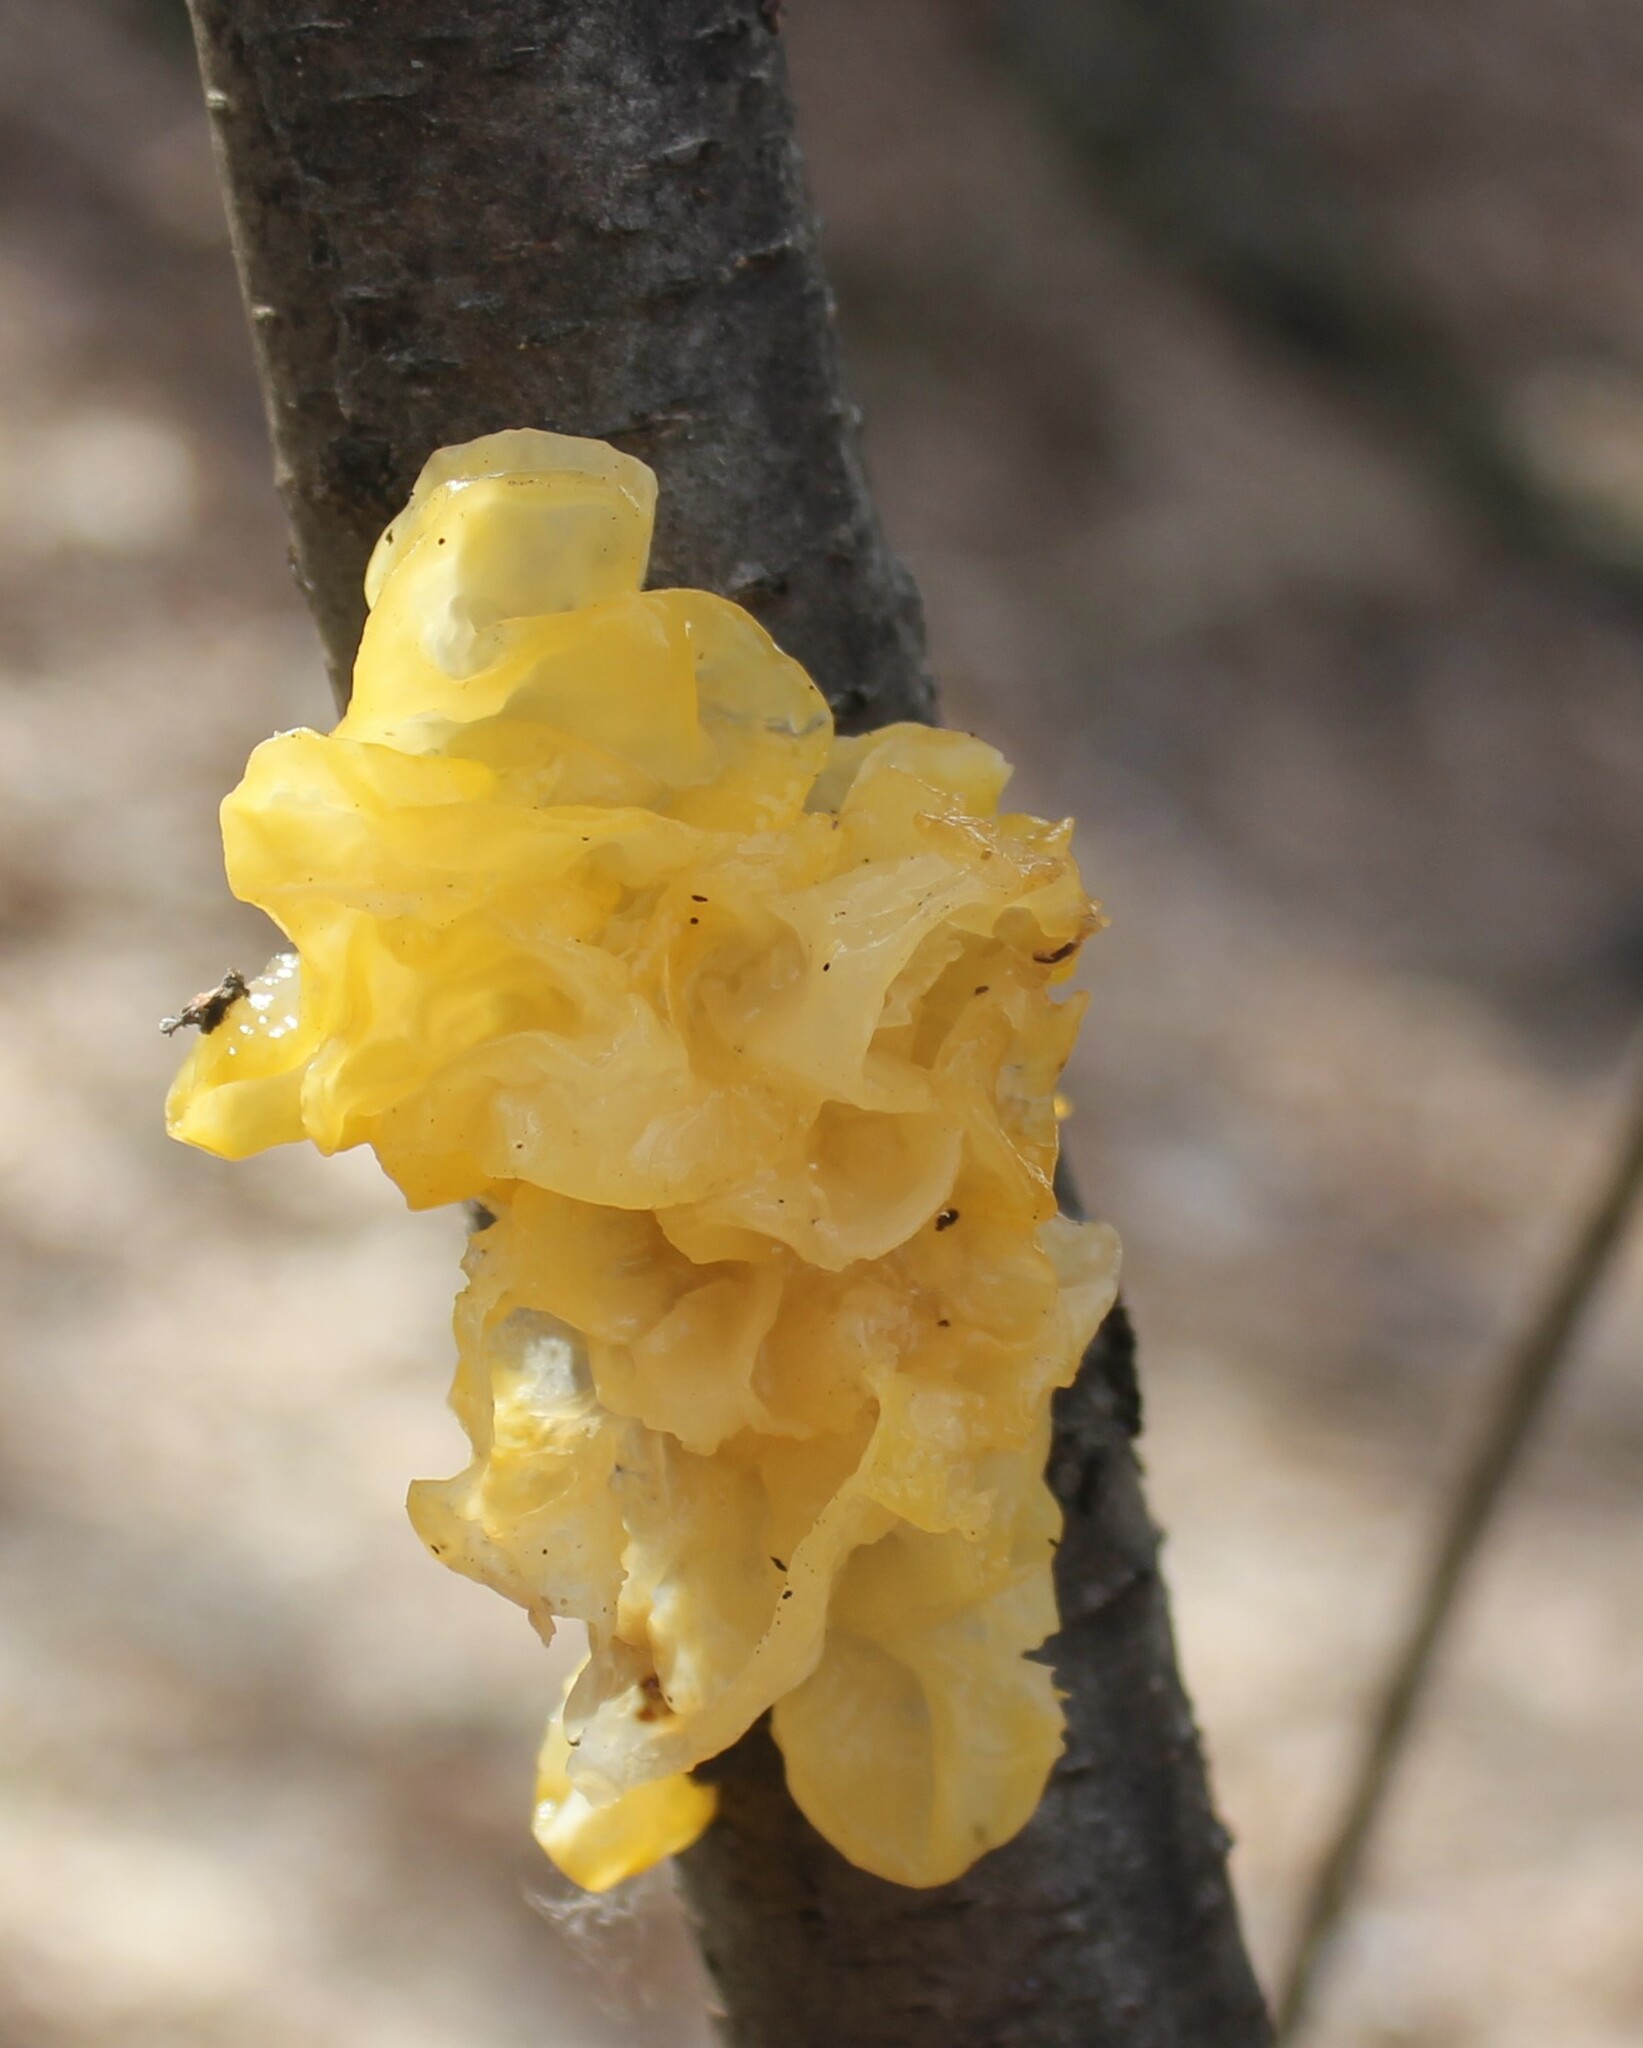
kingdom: Fungi
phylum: Basidiomycota
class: Tremellomycetes
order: Tremellales
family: Tremellaceae
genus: Tremella
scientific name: Tremella mesenterica
